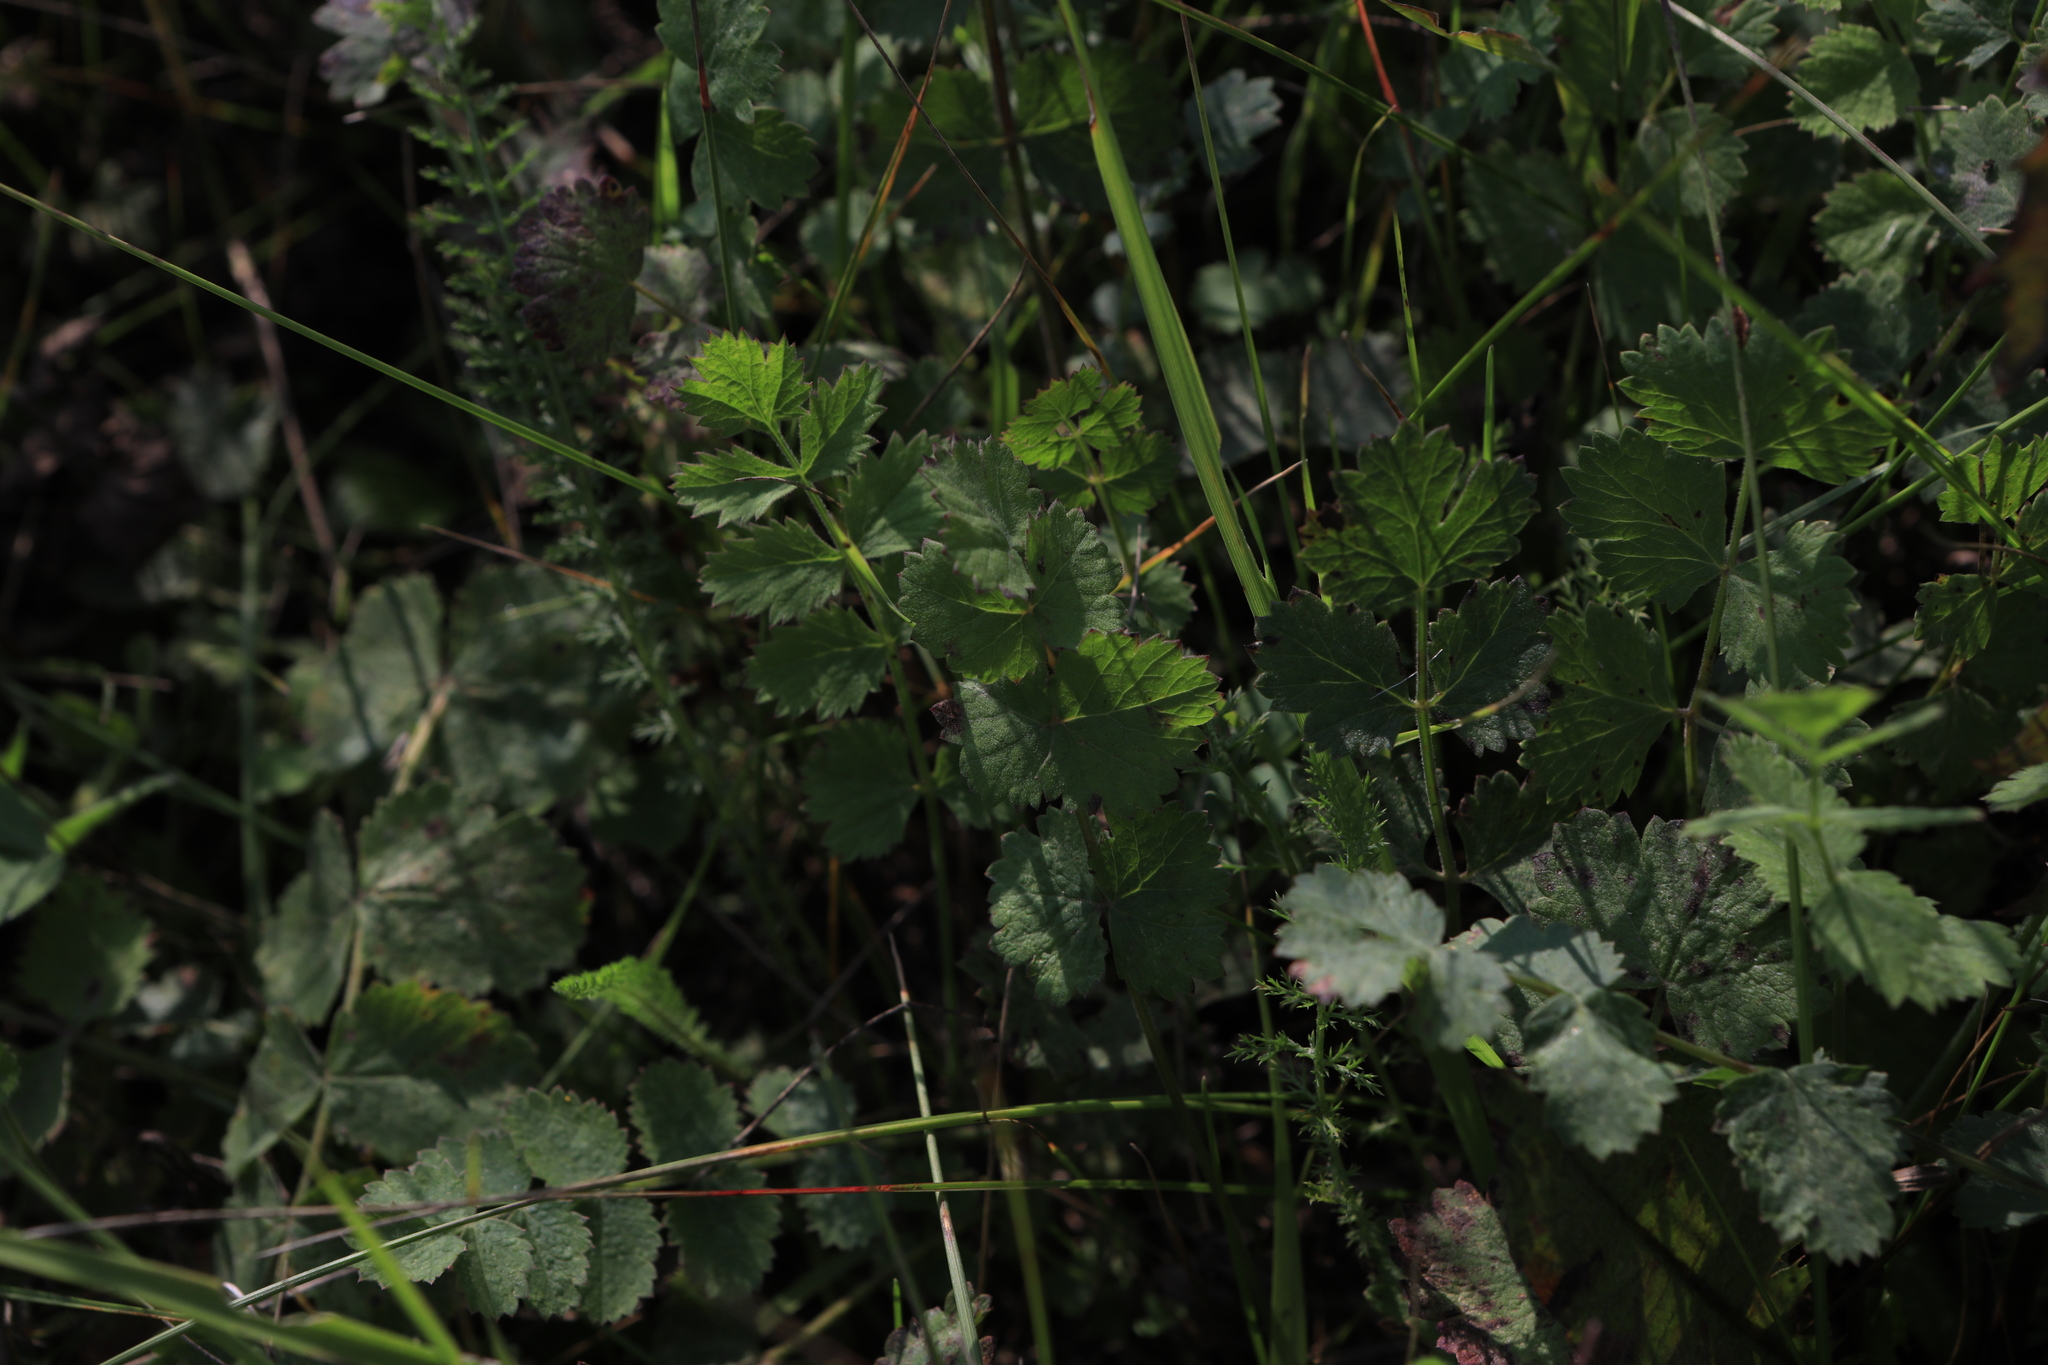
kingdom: Plantae
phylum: Tracheophyta
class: Magnoliopsida
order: Apiales
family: Apiaceae
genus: Pimpinella
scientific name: Pimpinella saxifraga
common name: Burnet-saxifrage
